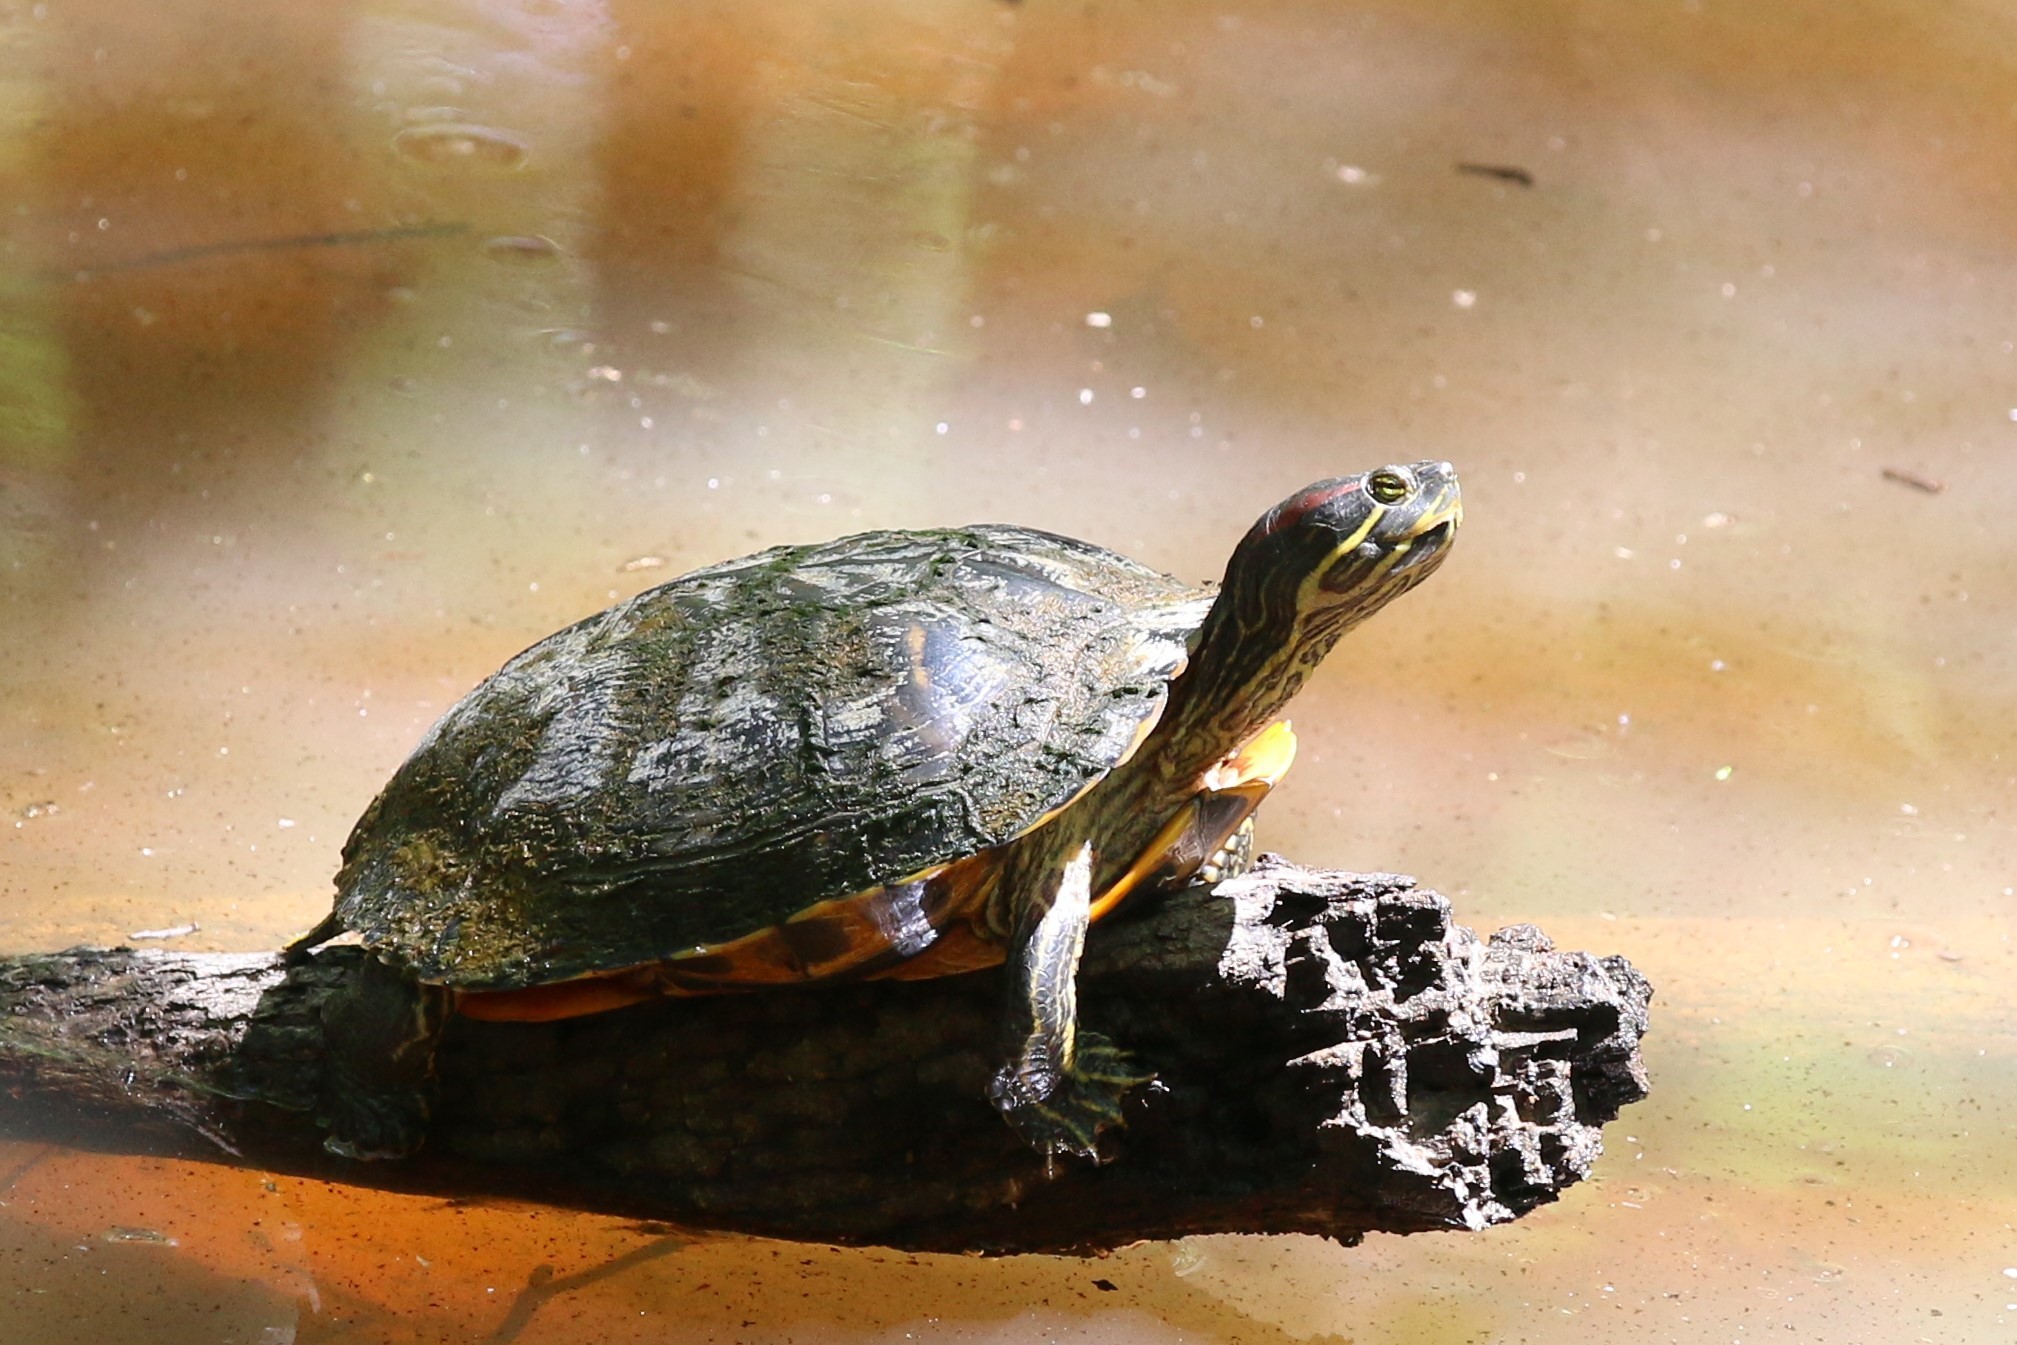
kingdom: Animalia
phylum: Chordata
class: Testudines
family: Emydidae
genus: Trachemys
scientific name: Trachemys scripta
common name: Slider
